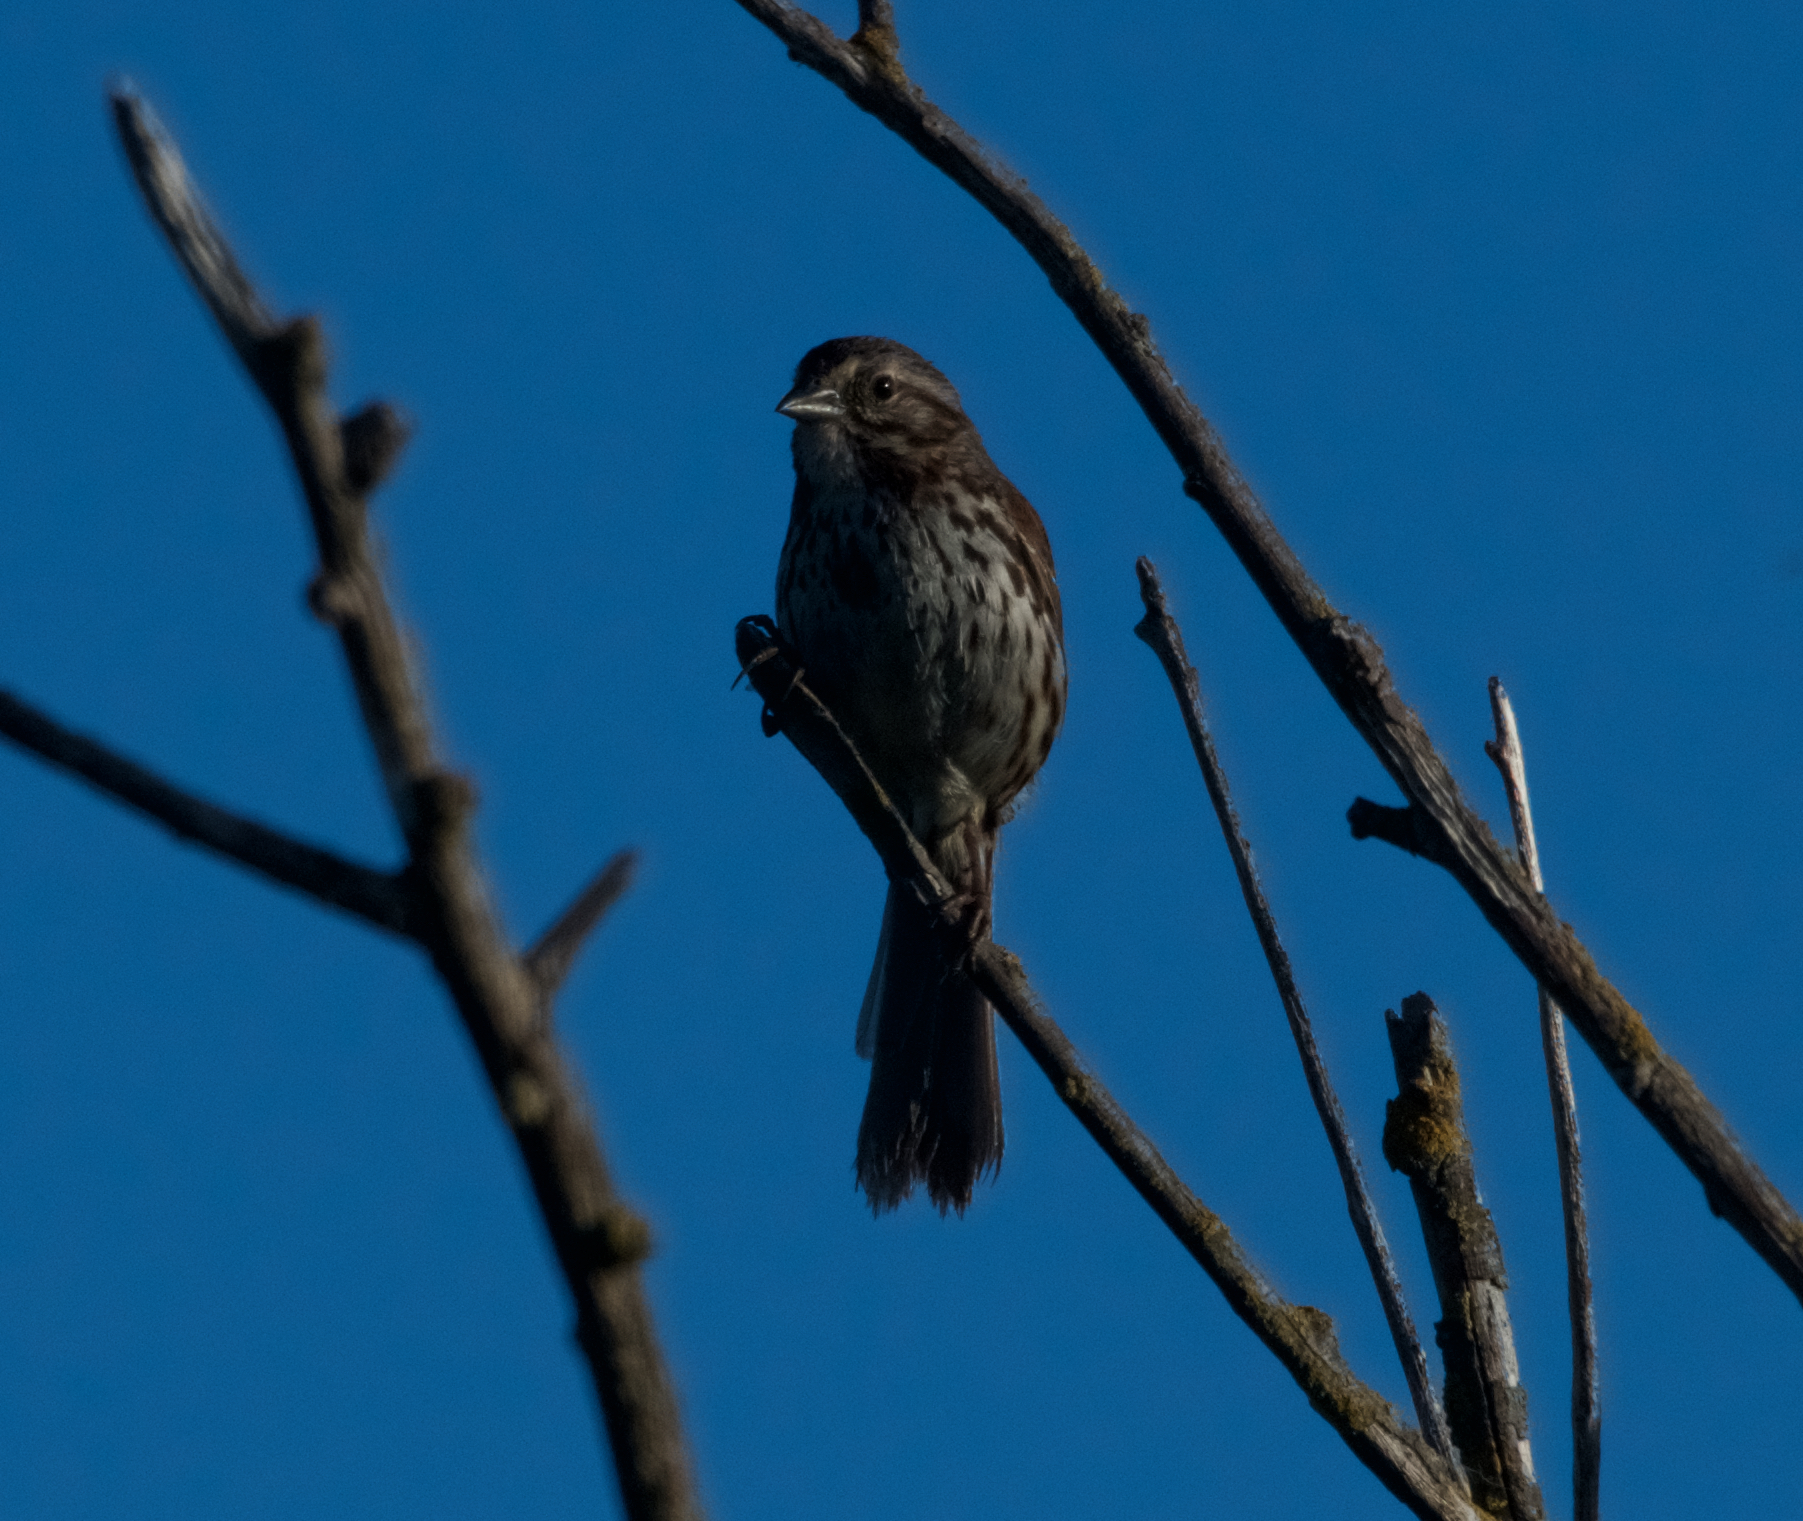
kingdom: Animalia
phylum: Chordata
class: Aves
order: Passeriformes
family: Passerellidae
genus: Melospiza
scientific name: Melospiza melodia
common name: Song sparrow
